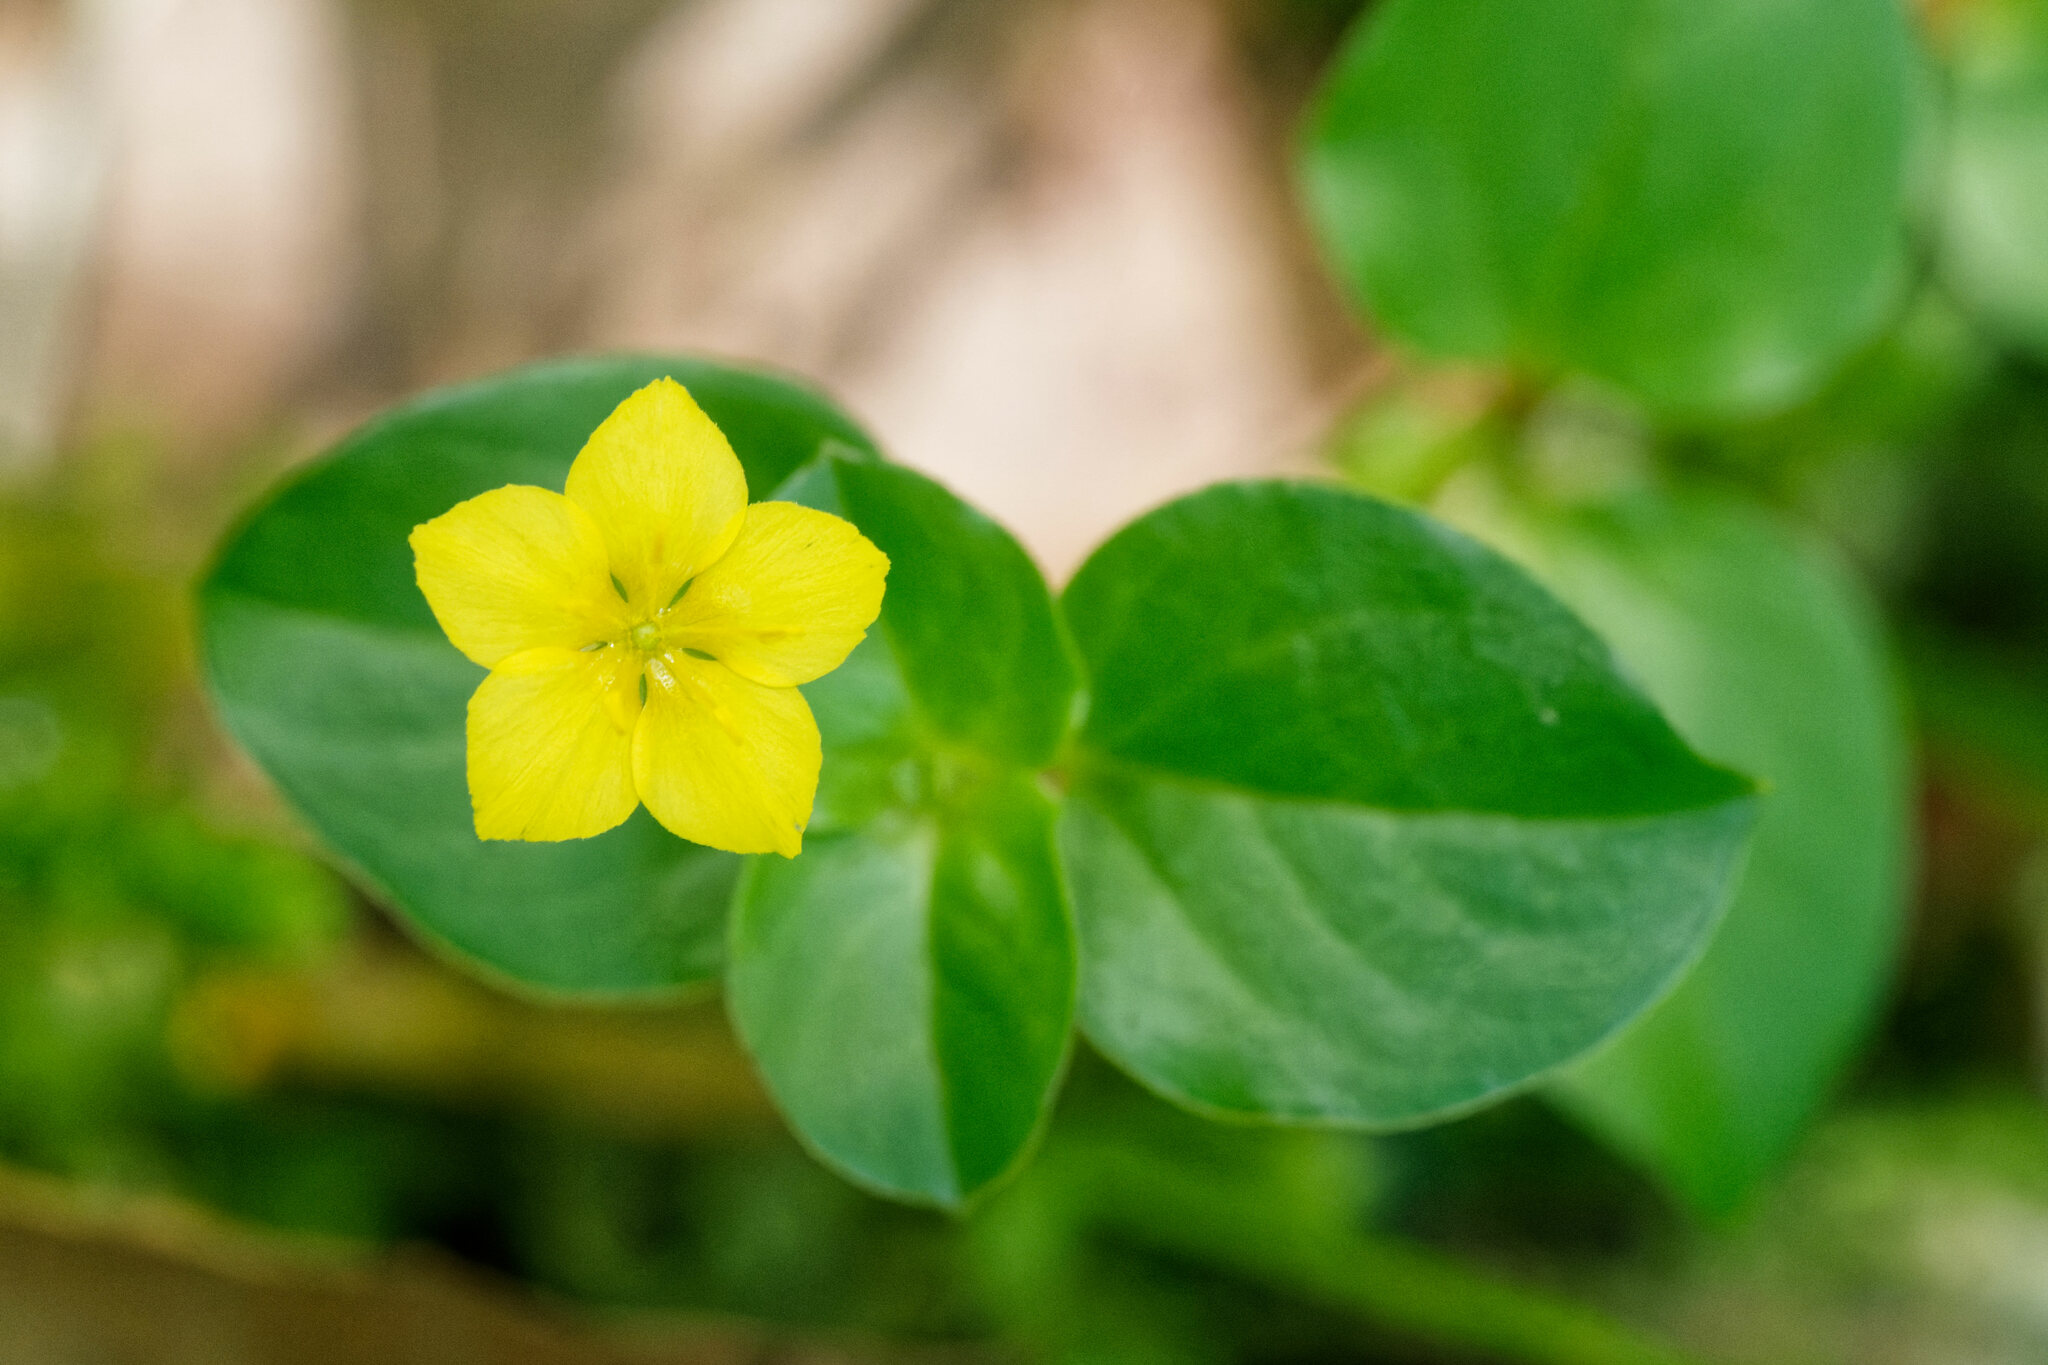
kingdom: Plantae
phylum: Tracheophyta
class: Magnoliopsida
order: Ericales
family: Primulaceae
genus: Lysimachia
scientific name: Lysimachia nemorum
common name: Yellow pimpernel
